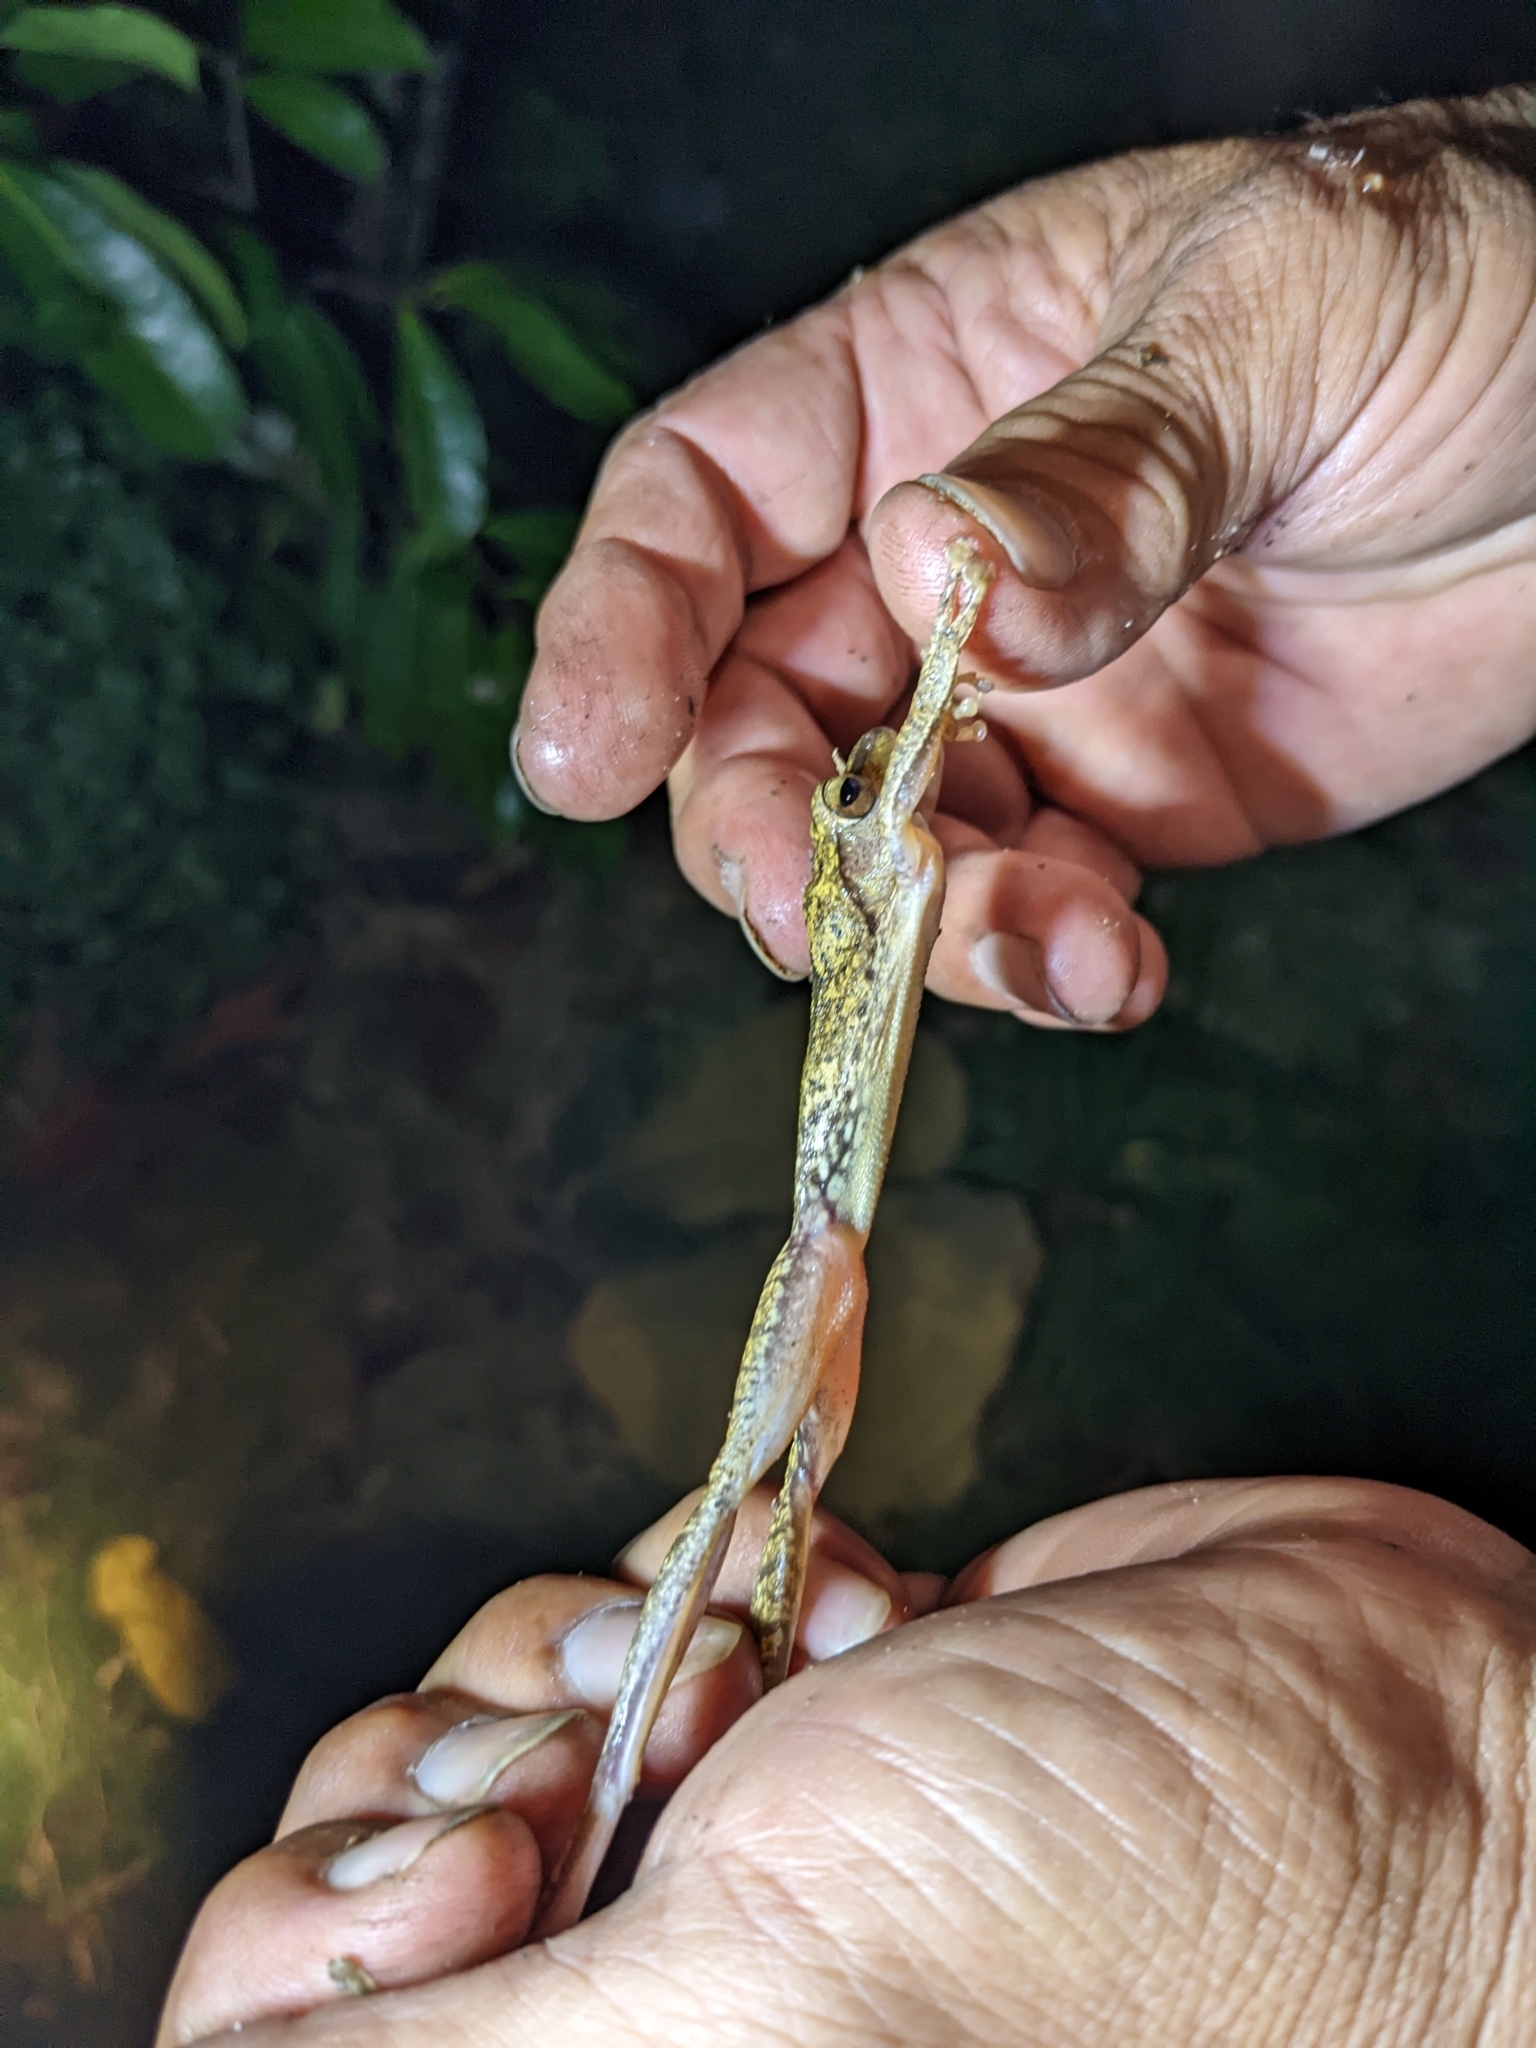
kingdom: Animalia
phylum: Chordata
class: Amphibia
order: Anura
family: Rhacophoridae
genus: Polypedates
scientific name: Polypedates megacephalus
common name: Hong kong whipping frog
